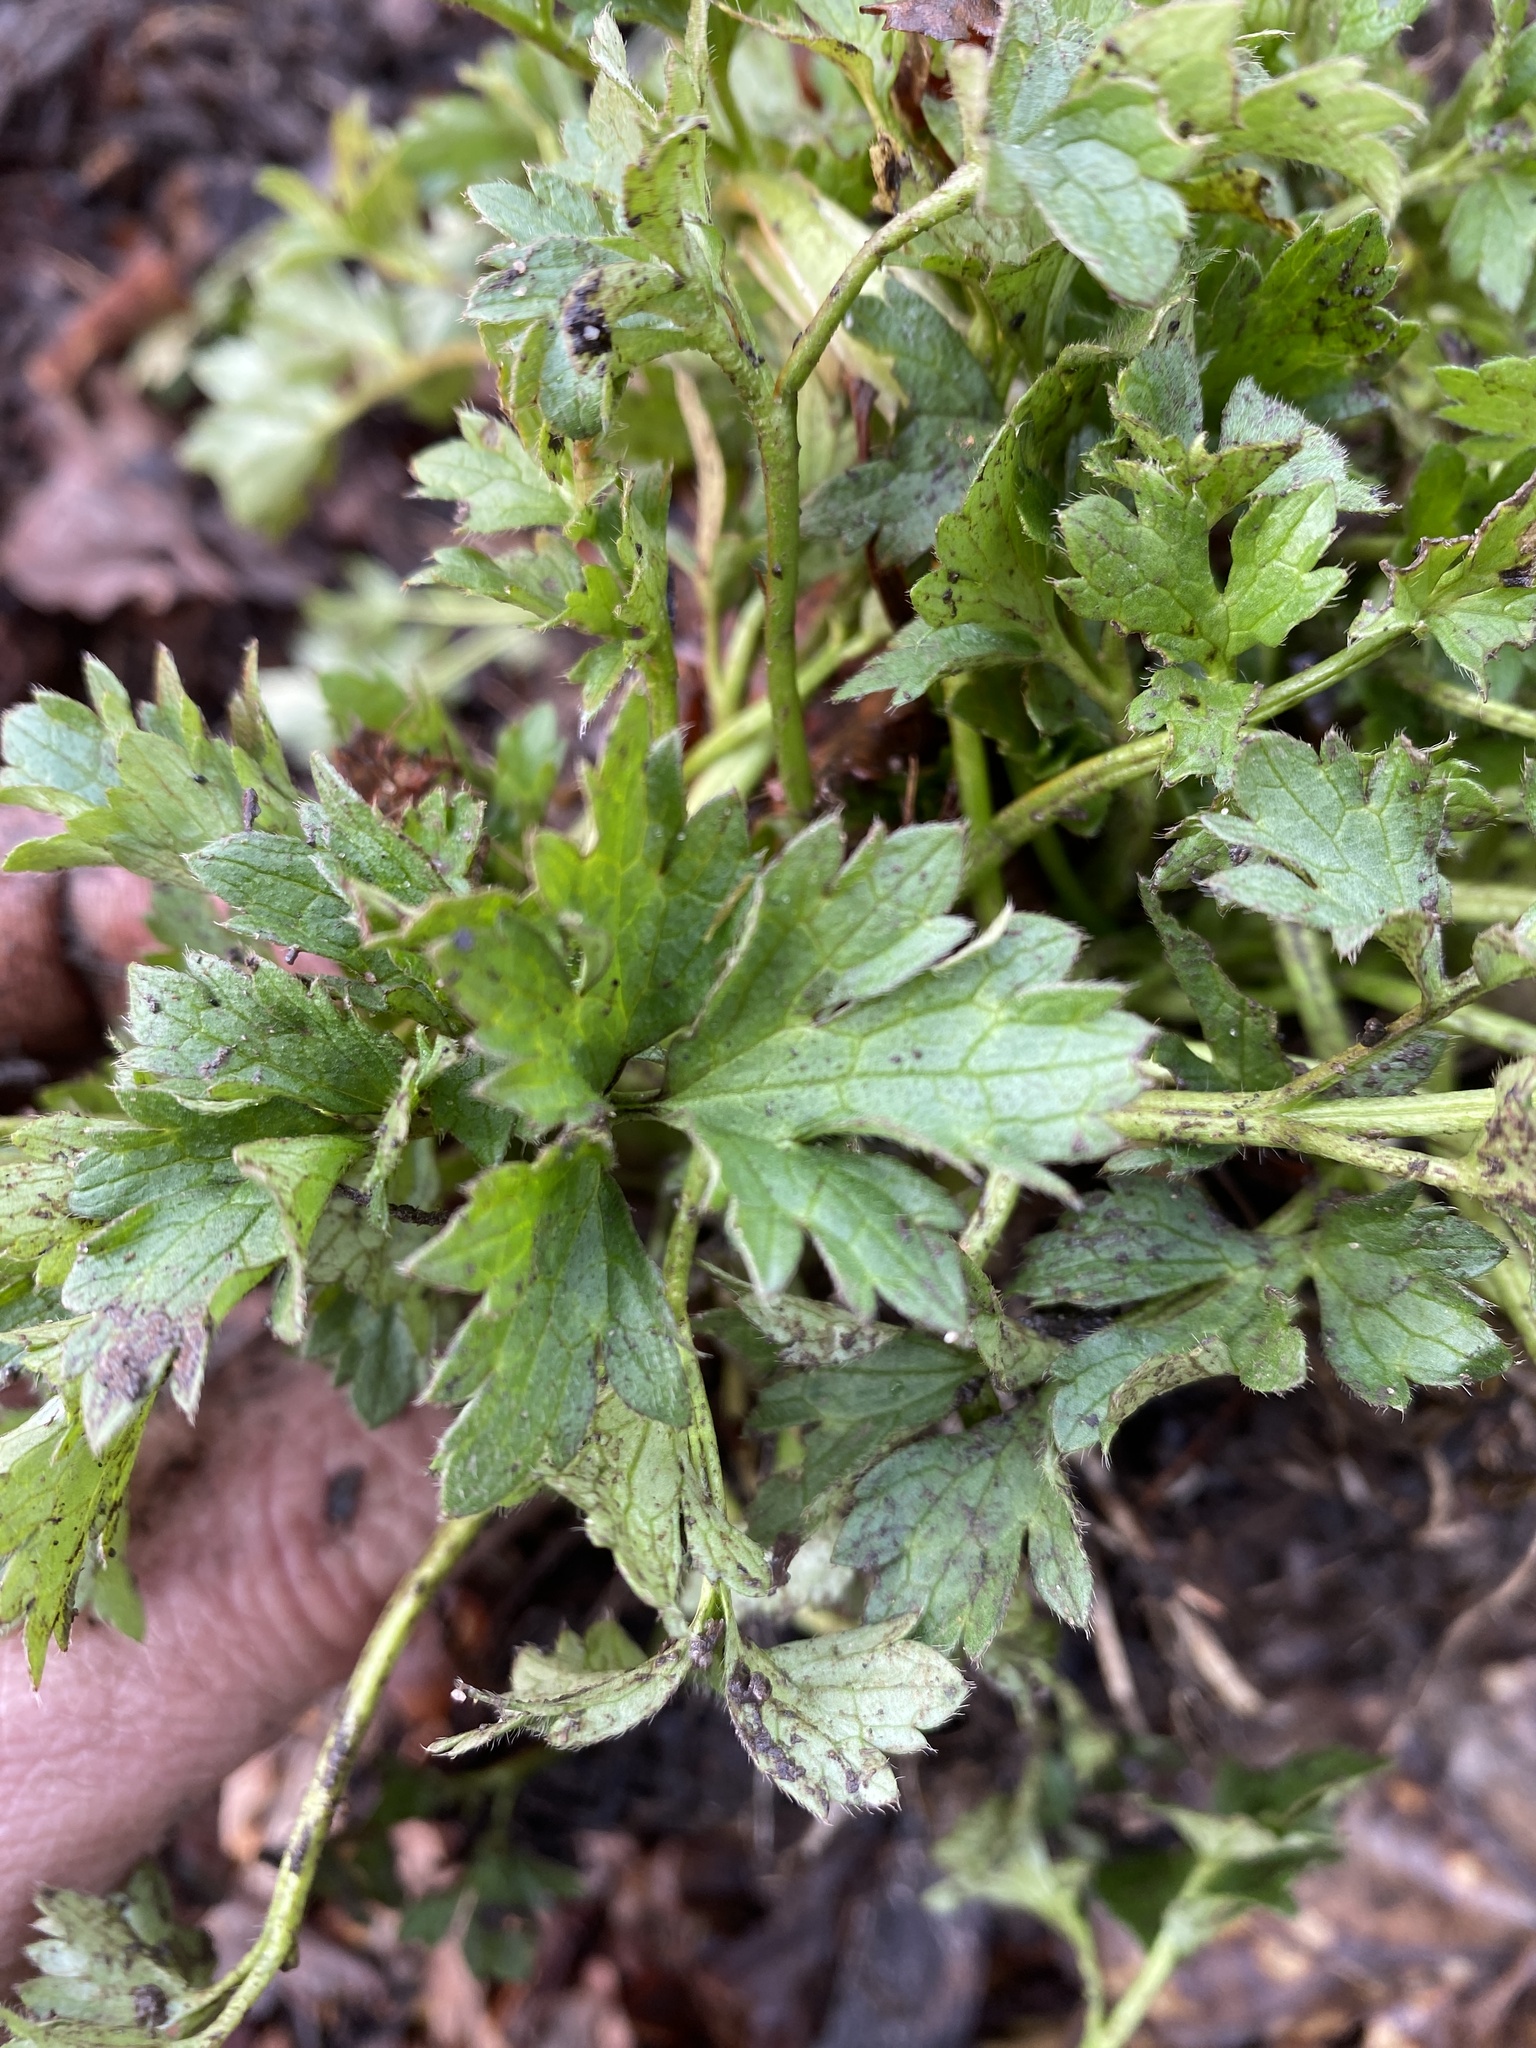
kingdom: Plantae
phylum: Tracheophyta
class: Magnoliopsida
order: Ranunculales
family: Ranunculaceae
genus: Ranunculus
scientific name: Ranunculus repens
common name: Creeping buttercup
